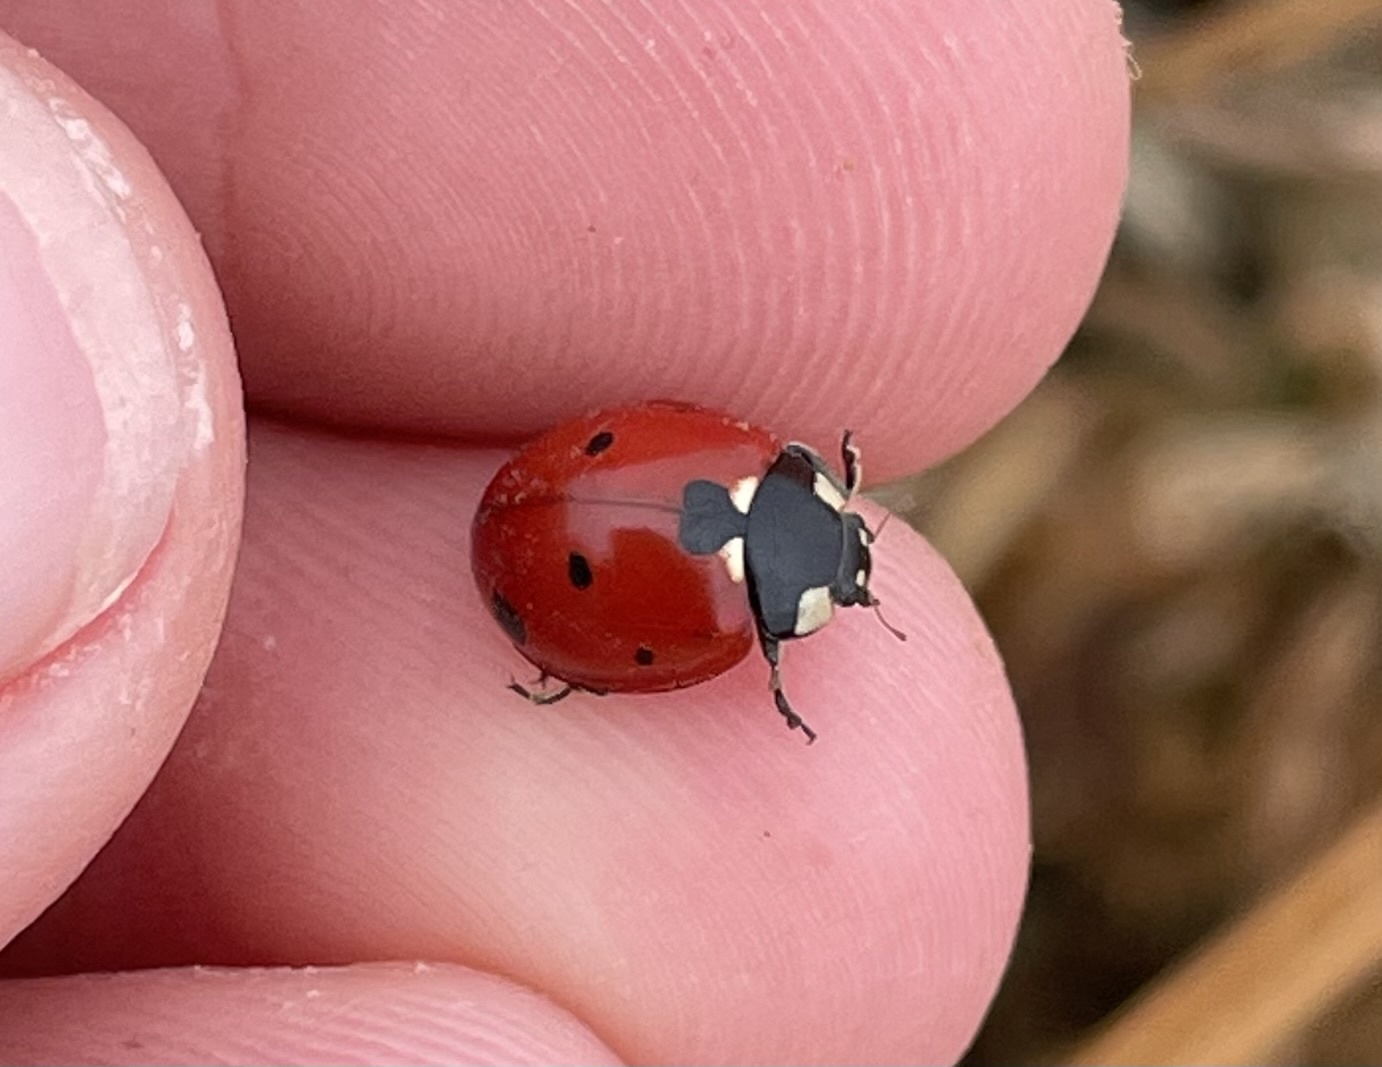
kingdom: Animalia
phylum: Arthropoda
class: Insecta
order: Coleoptera
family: Coccinellidae
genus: Coccinella
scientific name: Coccinella septempunctata
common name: Sevenspotted lady beetle
